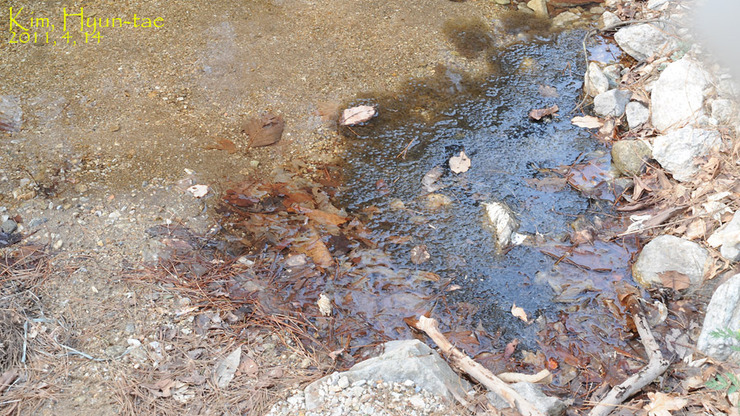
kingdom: Animalia
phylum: Chordata
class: Amphibia
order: Anura
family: Ranidae
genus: Rana
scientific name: Rana huanrenensis
